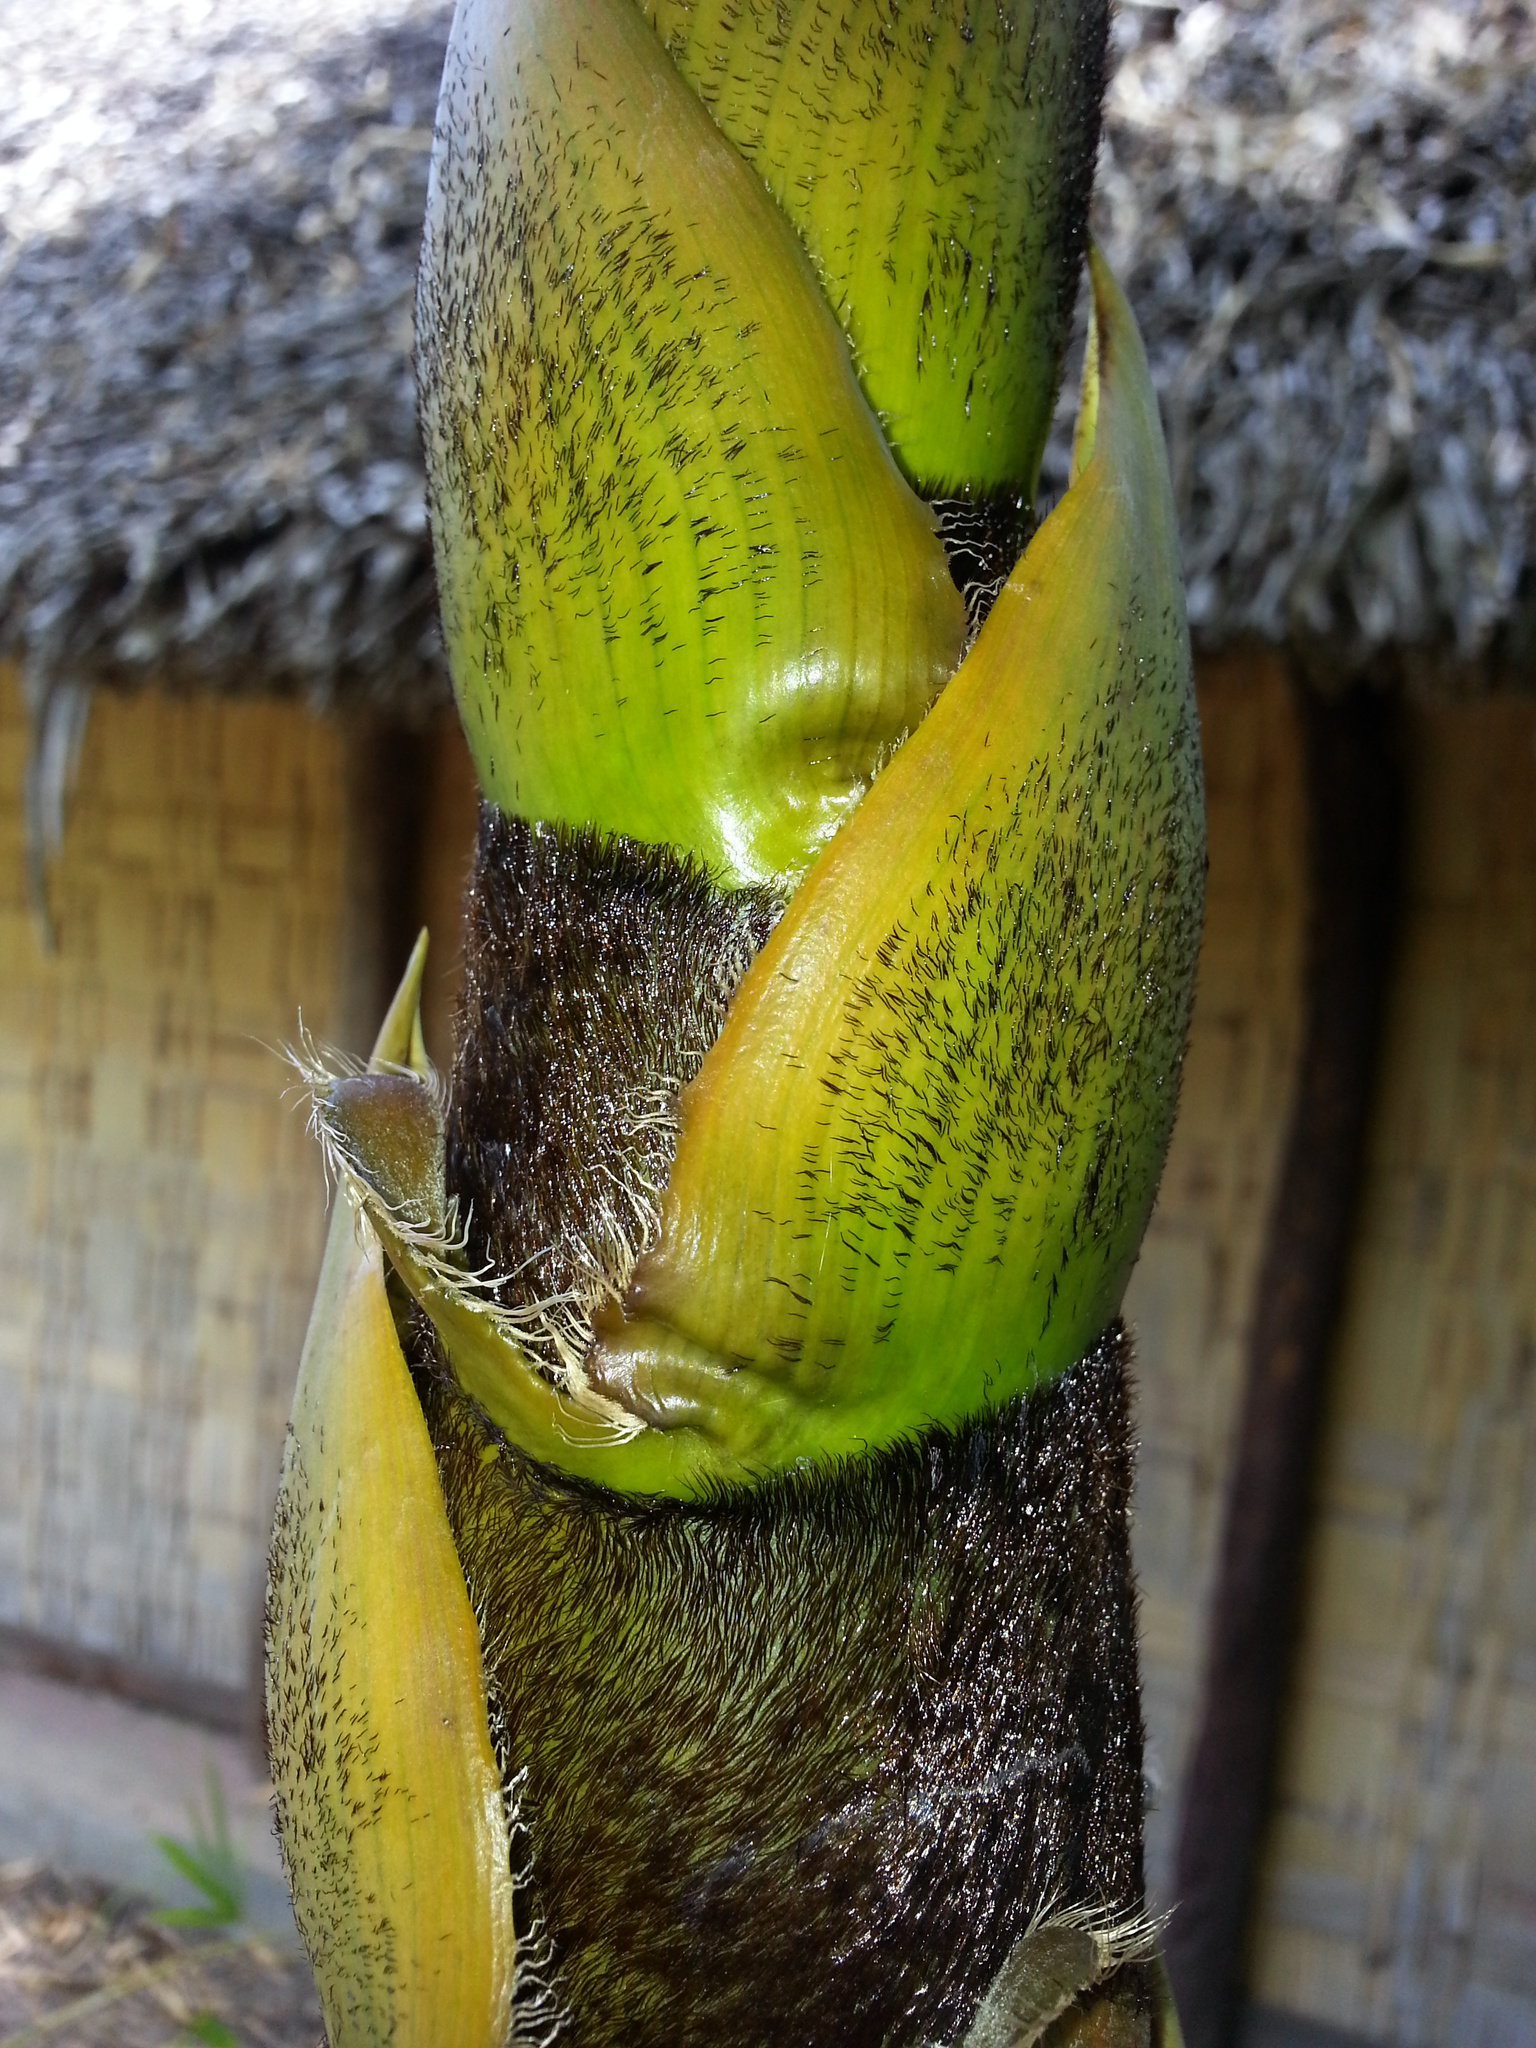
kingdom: Plantae
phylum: Tracheophyta
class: Liliopsida
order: Poales
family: Poaceae
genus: Bambusa
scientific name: Bambusa vulgaris
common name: Common bamboo
